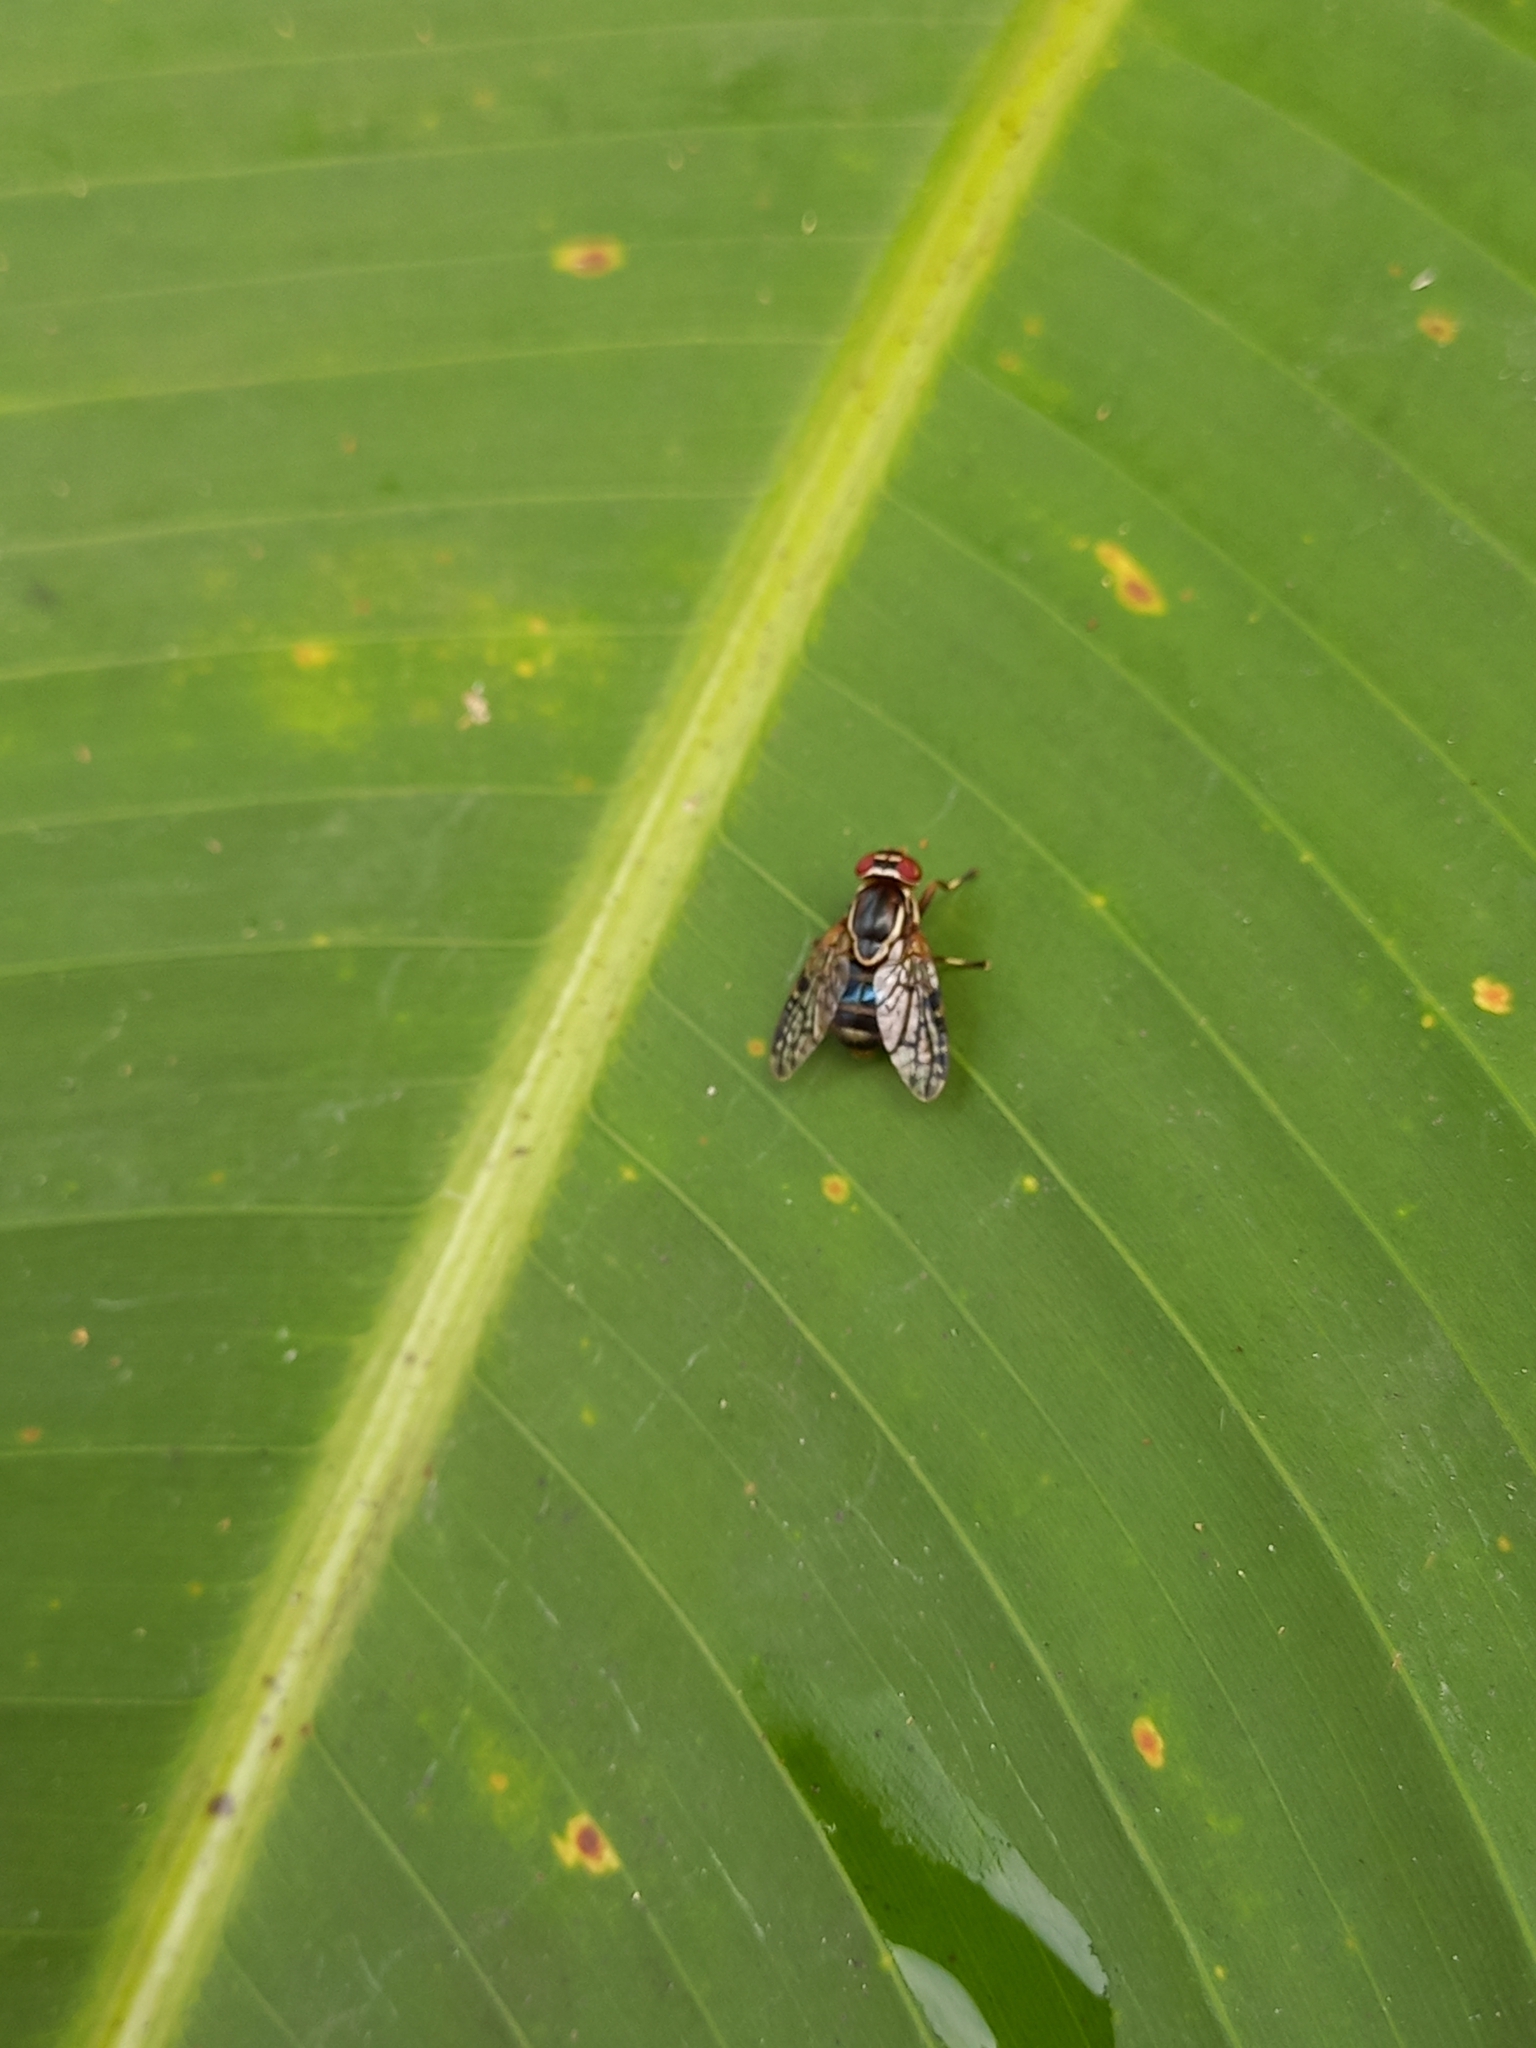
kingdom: Animalia
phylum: Arthropoda
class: Insecta
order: Diptera
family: Platystomatidae
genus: Scholastes
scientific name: Scholastes lonchifer
